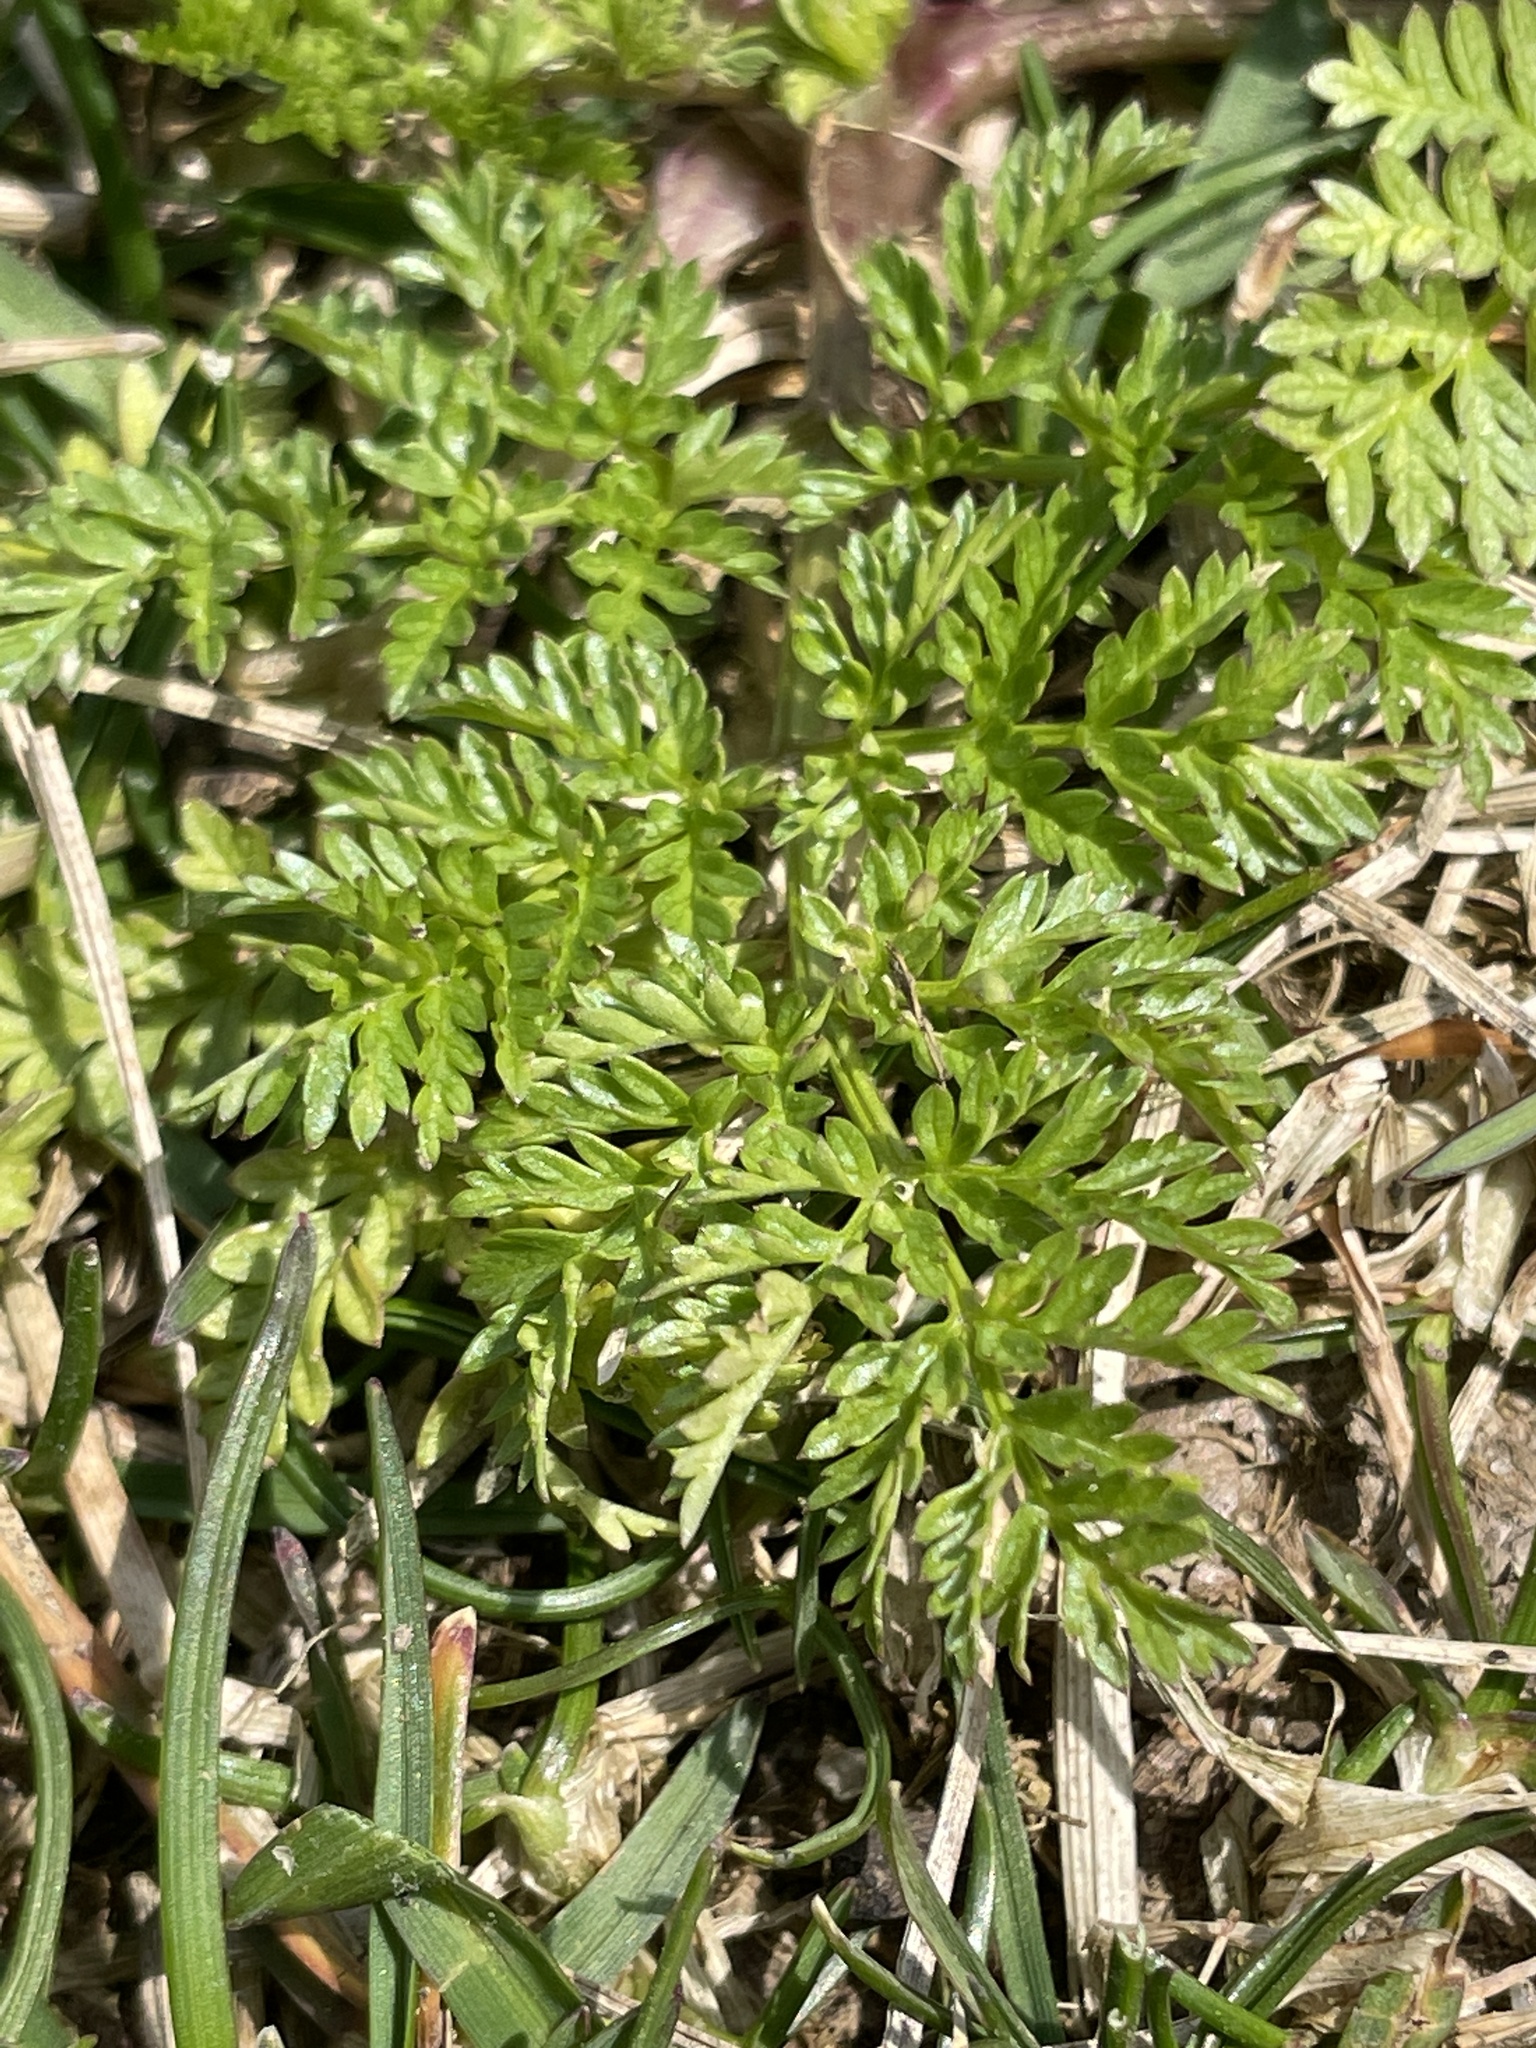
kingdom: Plantae
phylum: Tracheophyta
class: Magnoliopsida
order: Apiales
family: Apiaceae
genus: Conium
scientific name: Conium maculatum
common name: Hemlock
